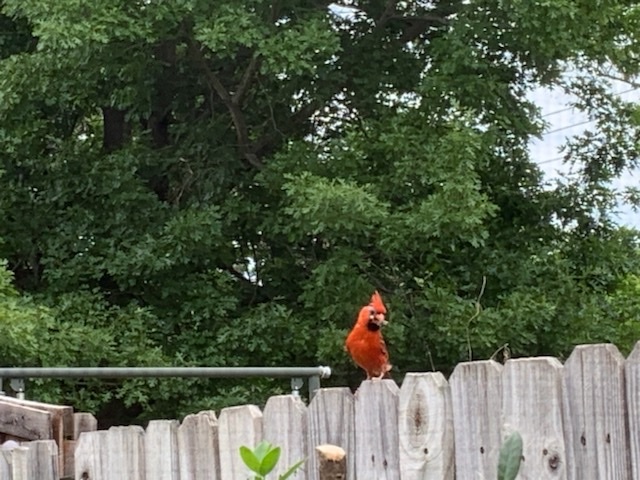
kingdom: Animalia
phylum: Chordata
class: Aves
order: Passeriformes
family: Cardinalidae
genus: Cardinalis
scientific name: Cardinalis cardinalis
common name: Northern cardinal
